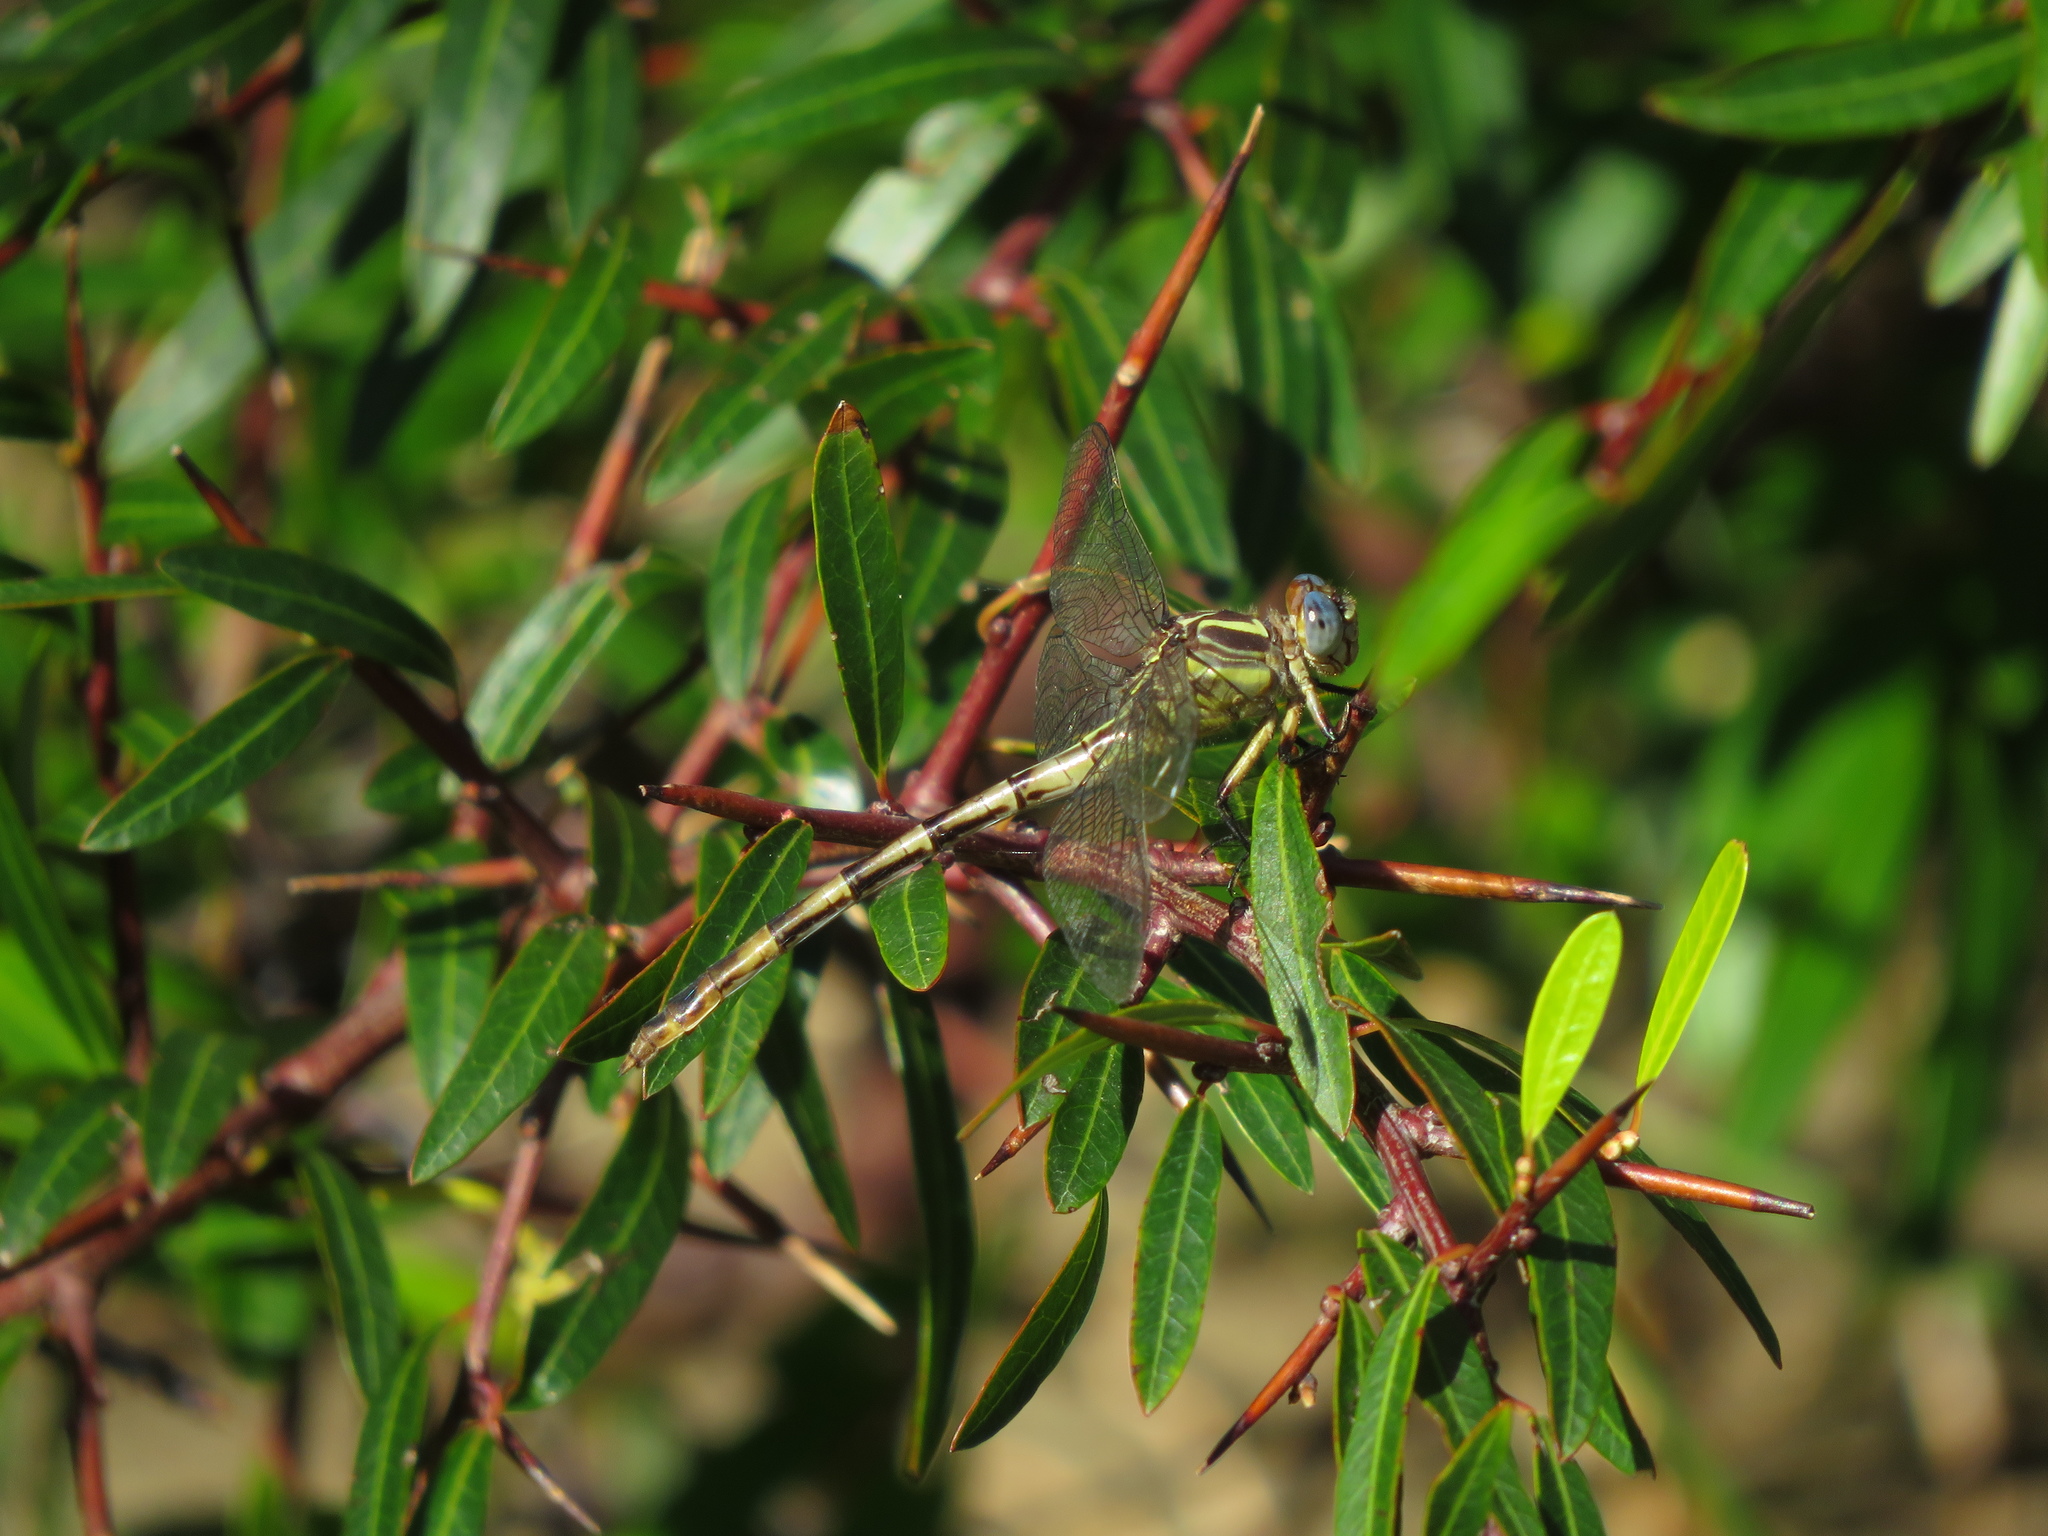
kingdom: Animalia
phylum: Arthropoda
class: Insecta
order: Odonata
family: Gomphidae
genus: Phyllocycla
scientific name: Phyllocycla argentina
